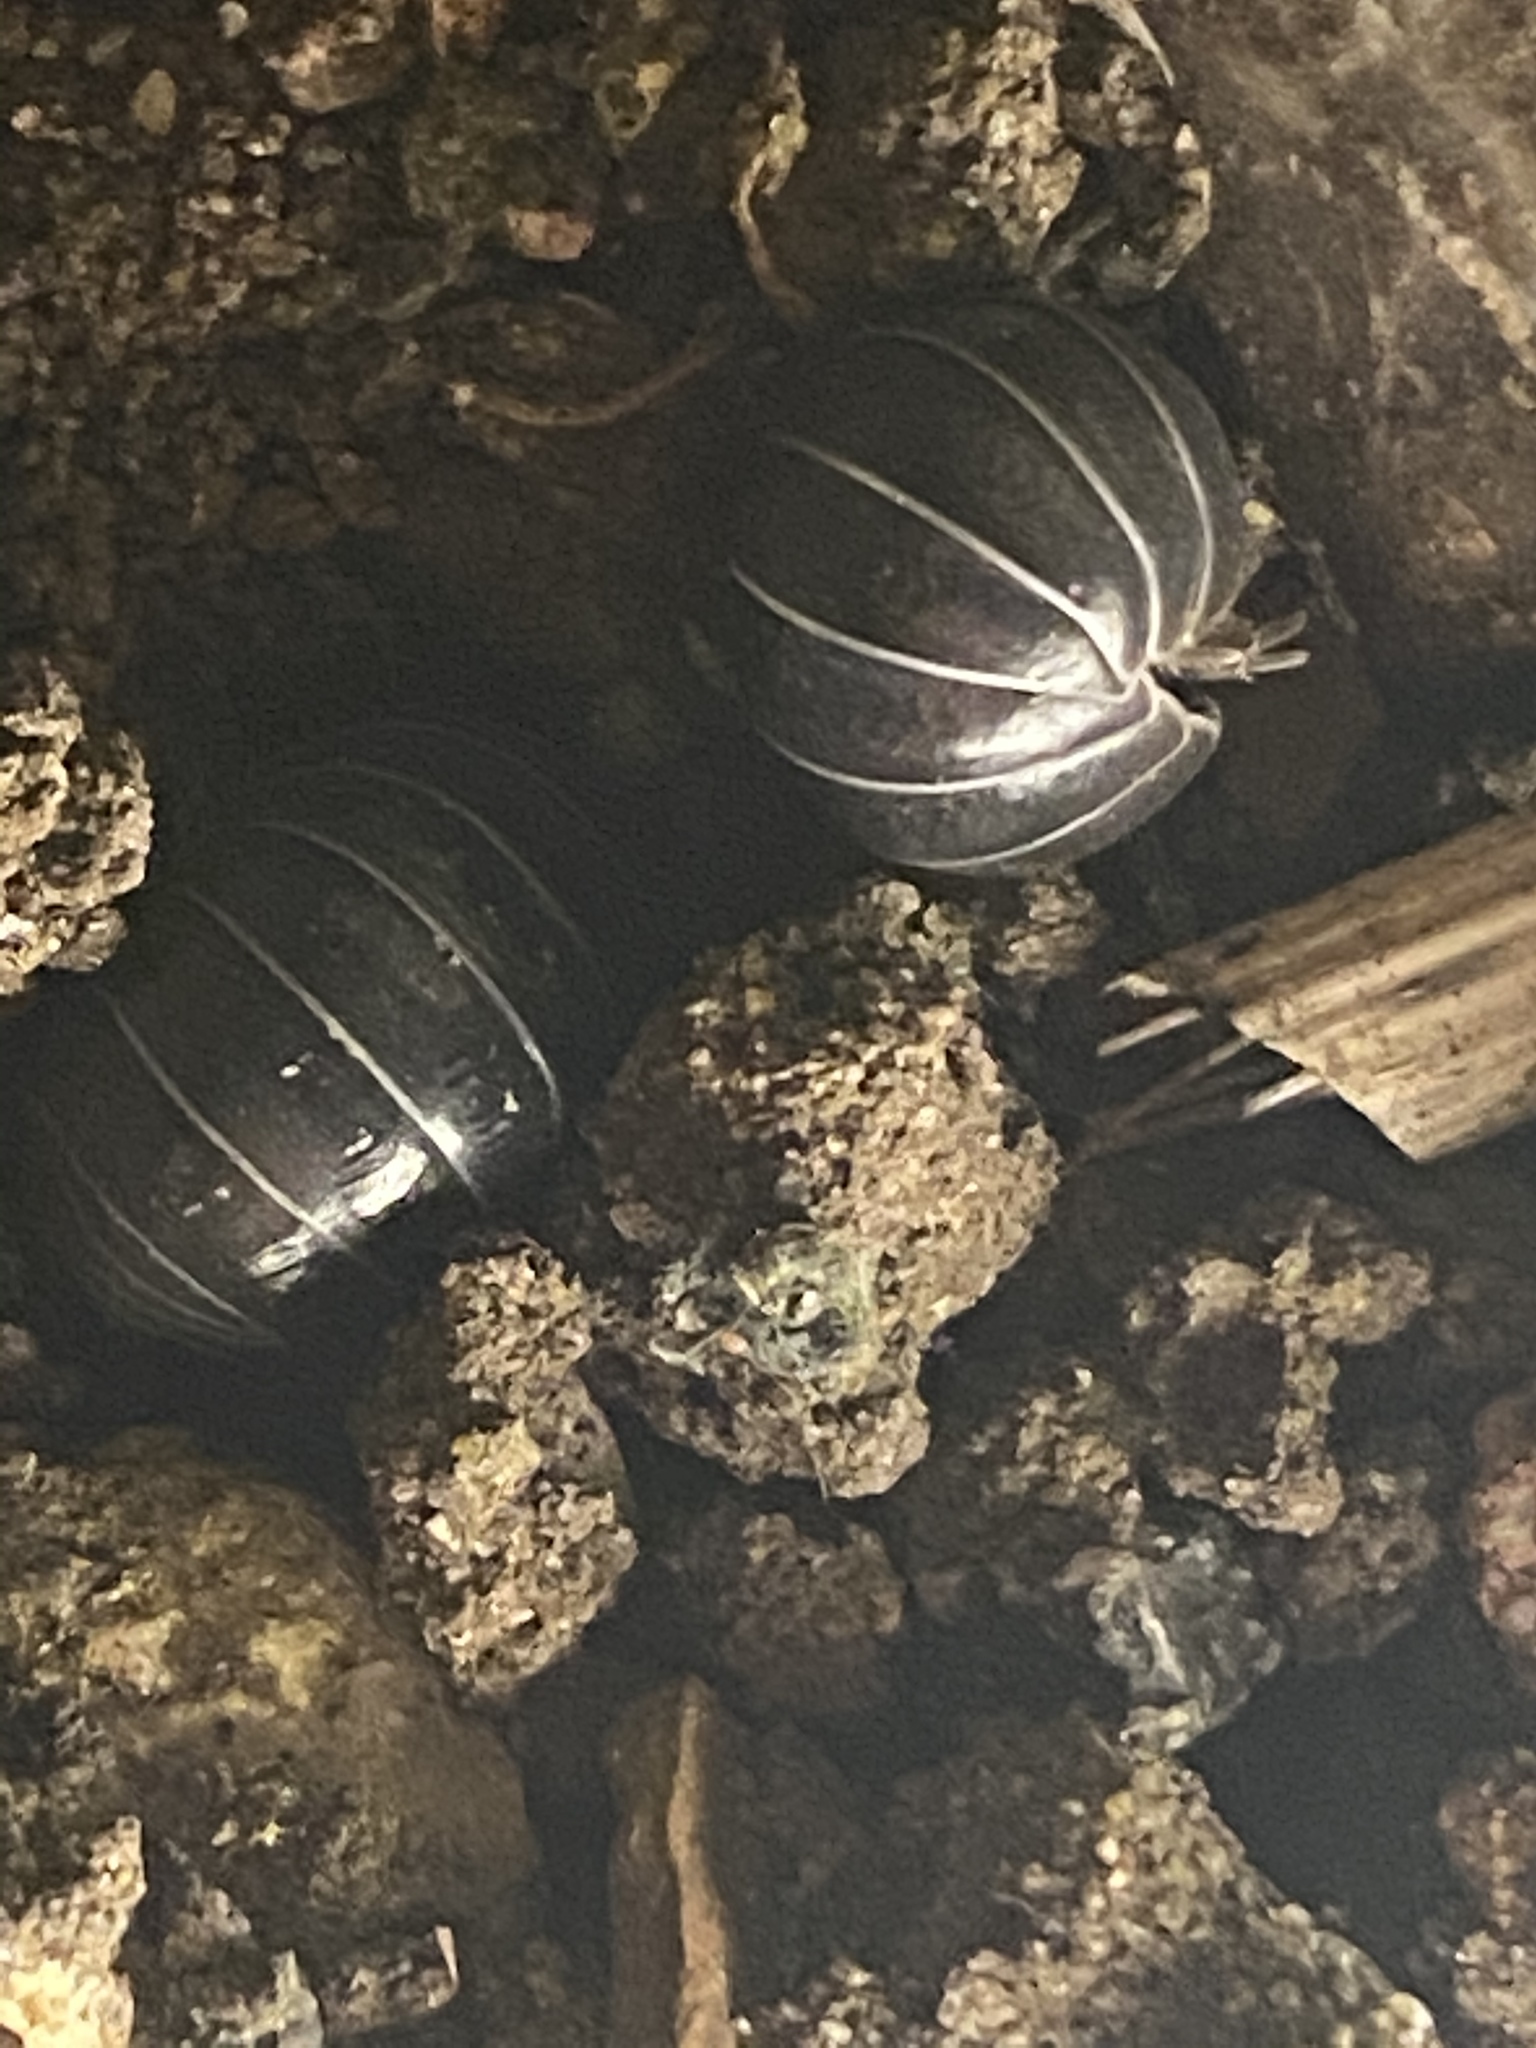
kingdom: Animalia
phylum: Arthropoda
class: Malacostraca
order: Isopoda
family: Armadillidiidae
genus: Armadillidium
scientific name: Armadillidium vulgare
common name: Common pill woodlouse
